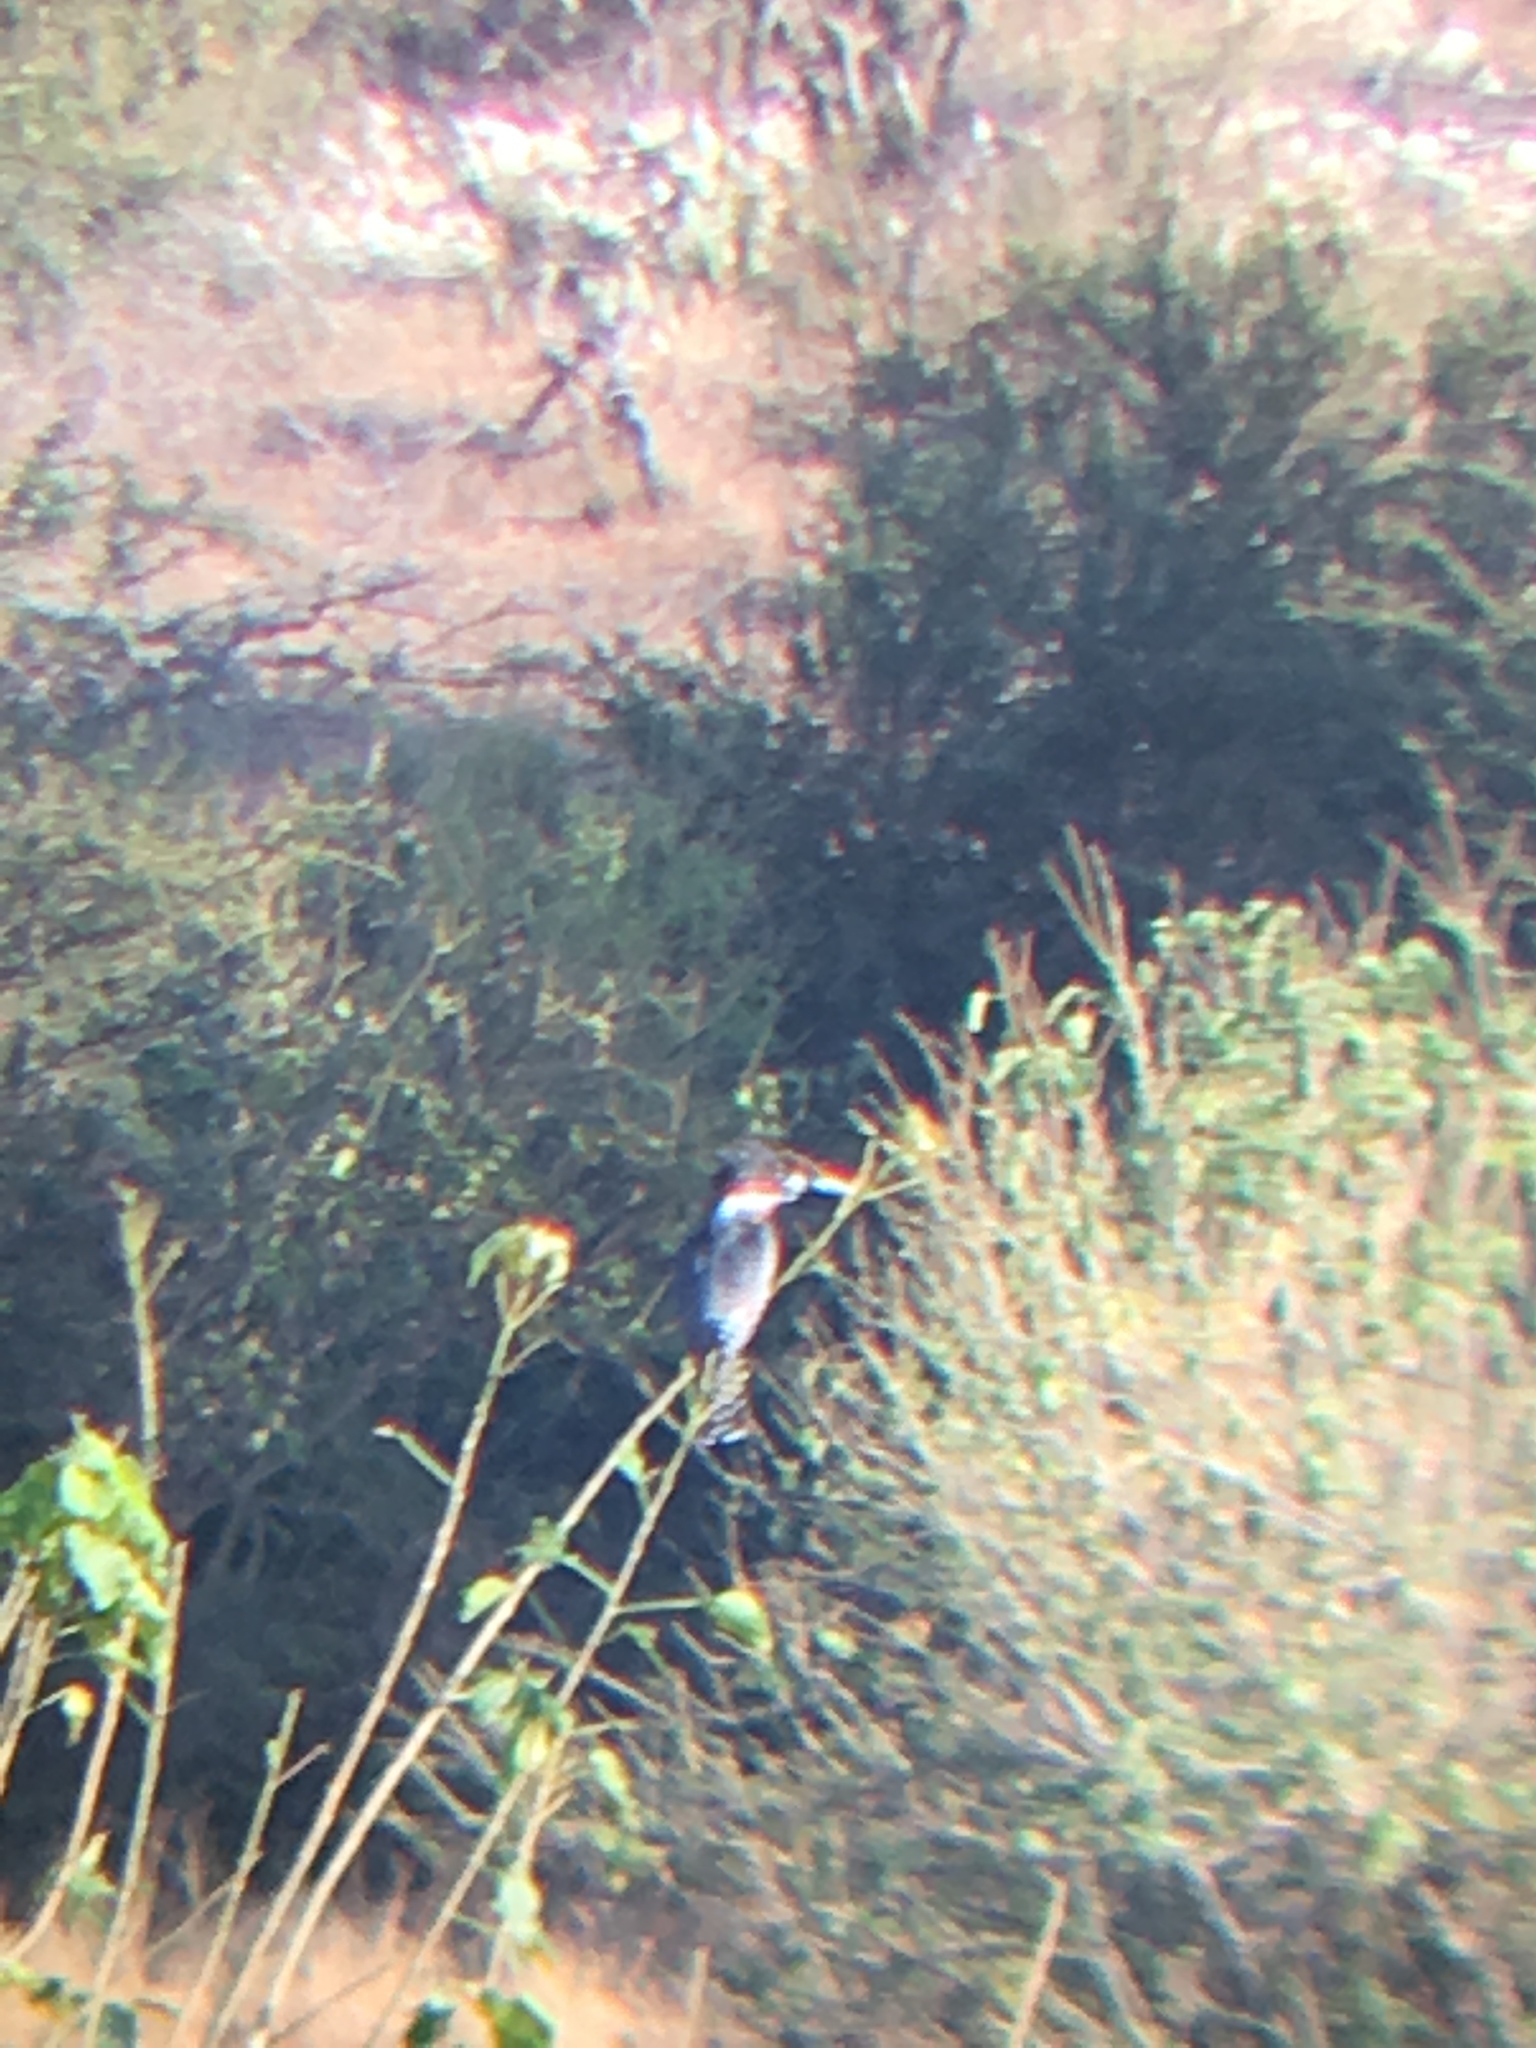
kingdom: Animalia
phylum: Chordata
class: Aves
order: Coraciiformes
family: Alcedinidae
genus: Megaceryle
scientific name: Megaceryle maxima
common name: Giant kingfisher
